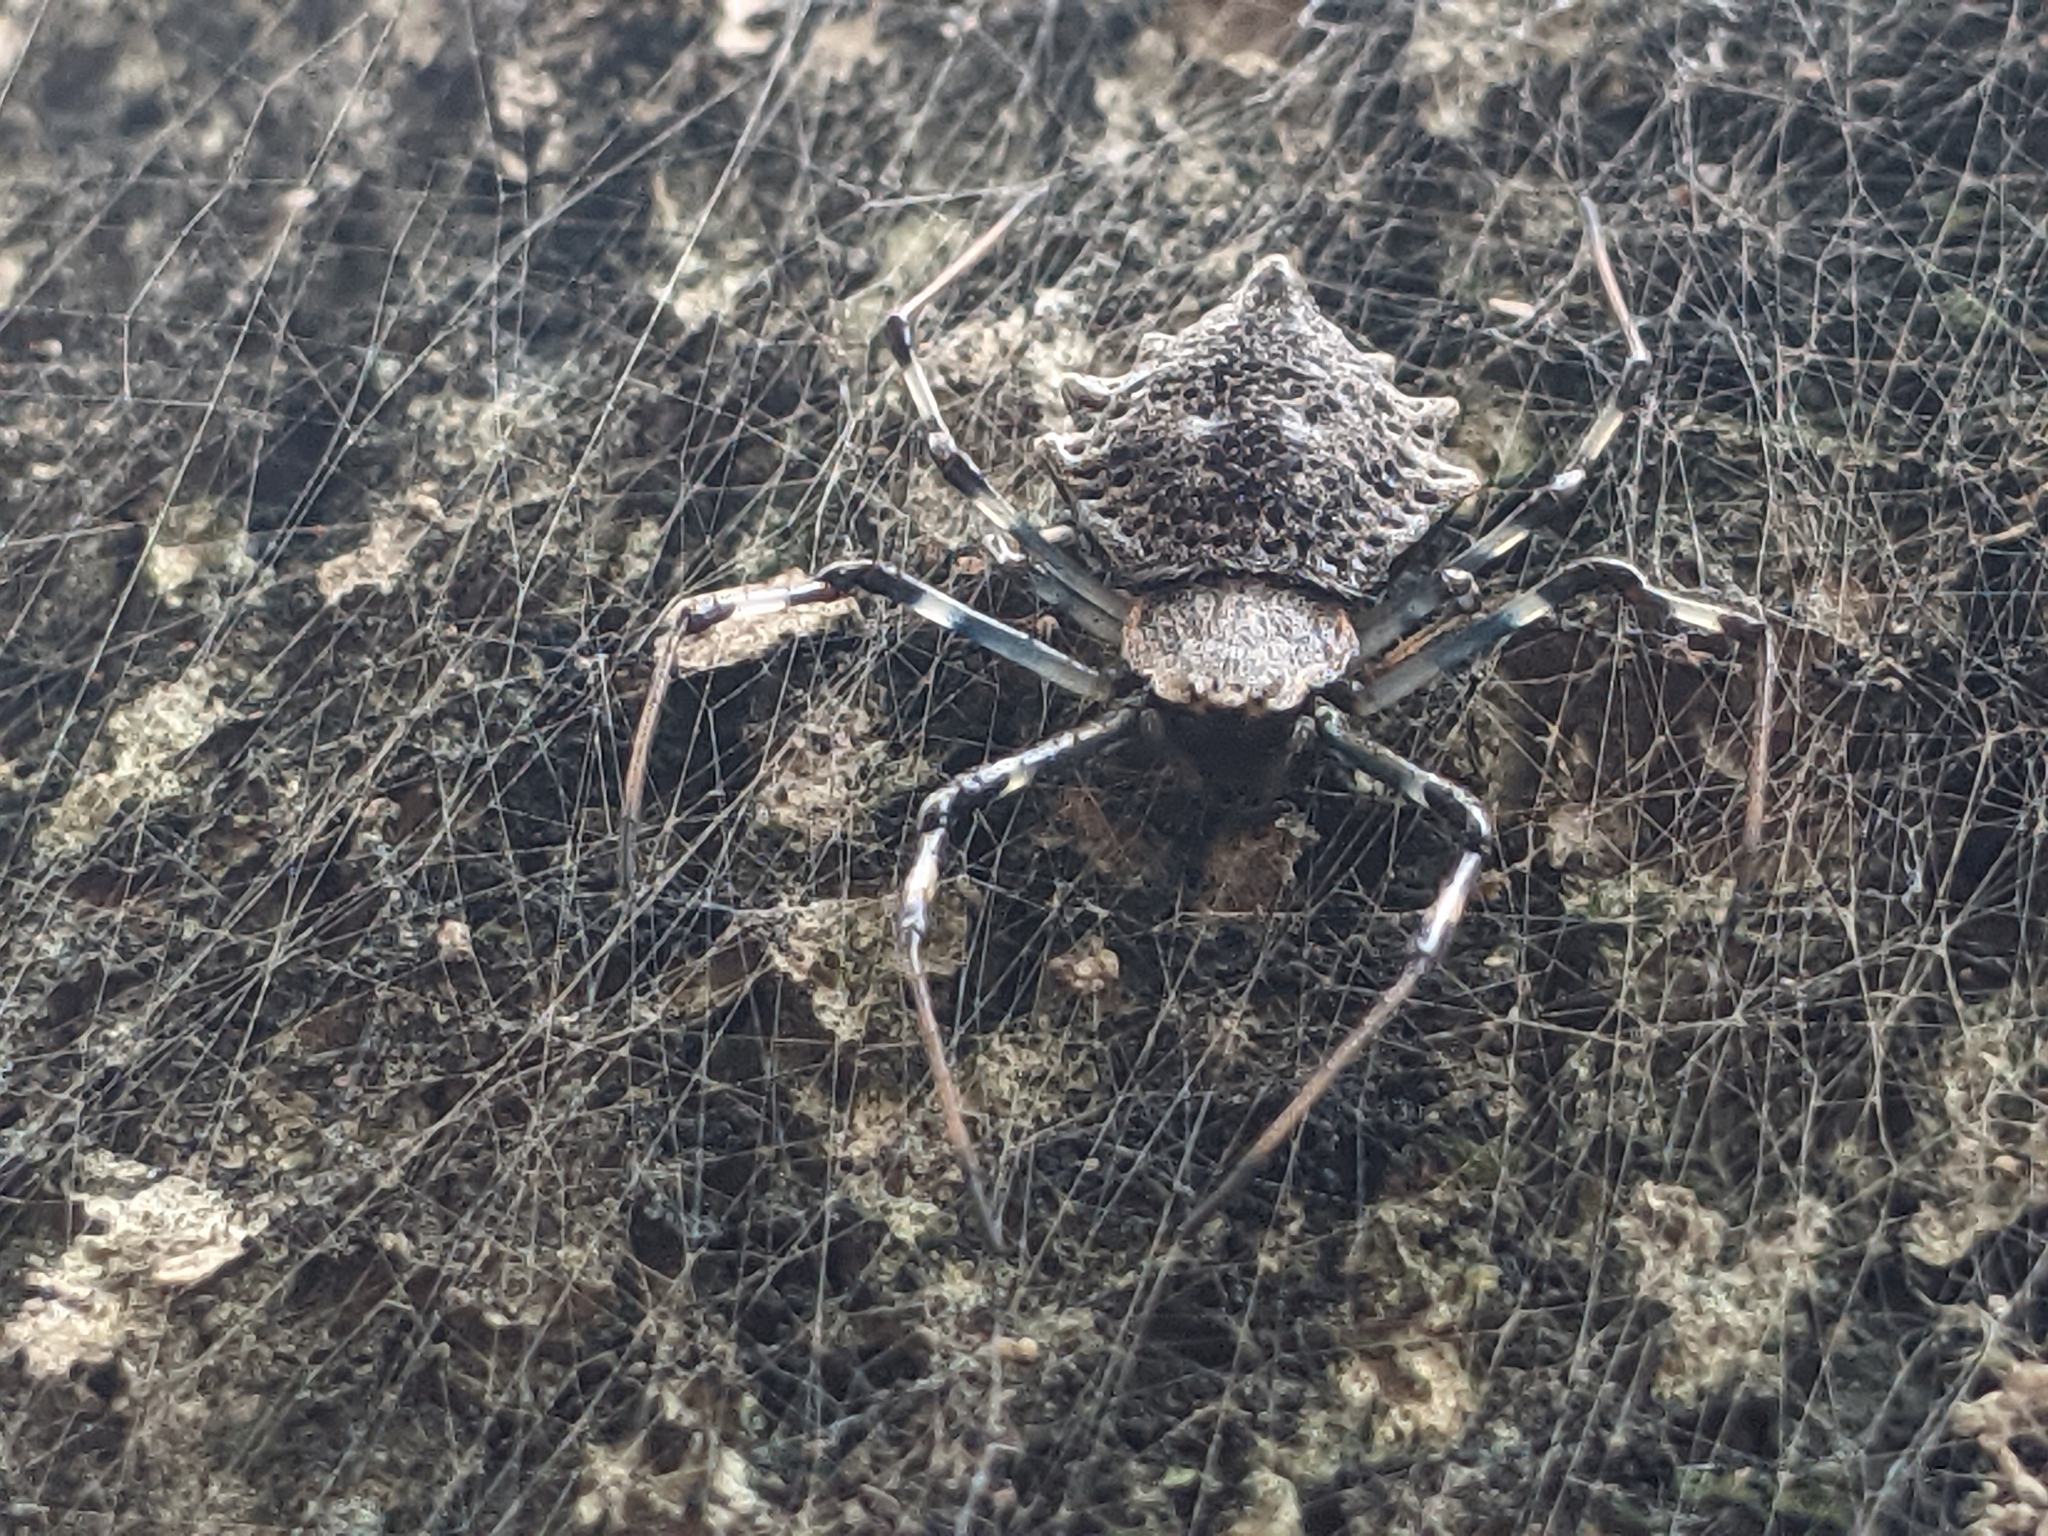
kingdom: Animalia
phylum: Arthropoda
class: Arachnida
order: Araneae
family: Araneidae
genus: Herennia
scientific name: Herennia multipuncta
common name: Spotted coin spider
